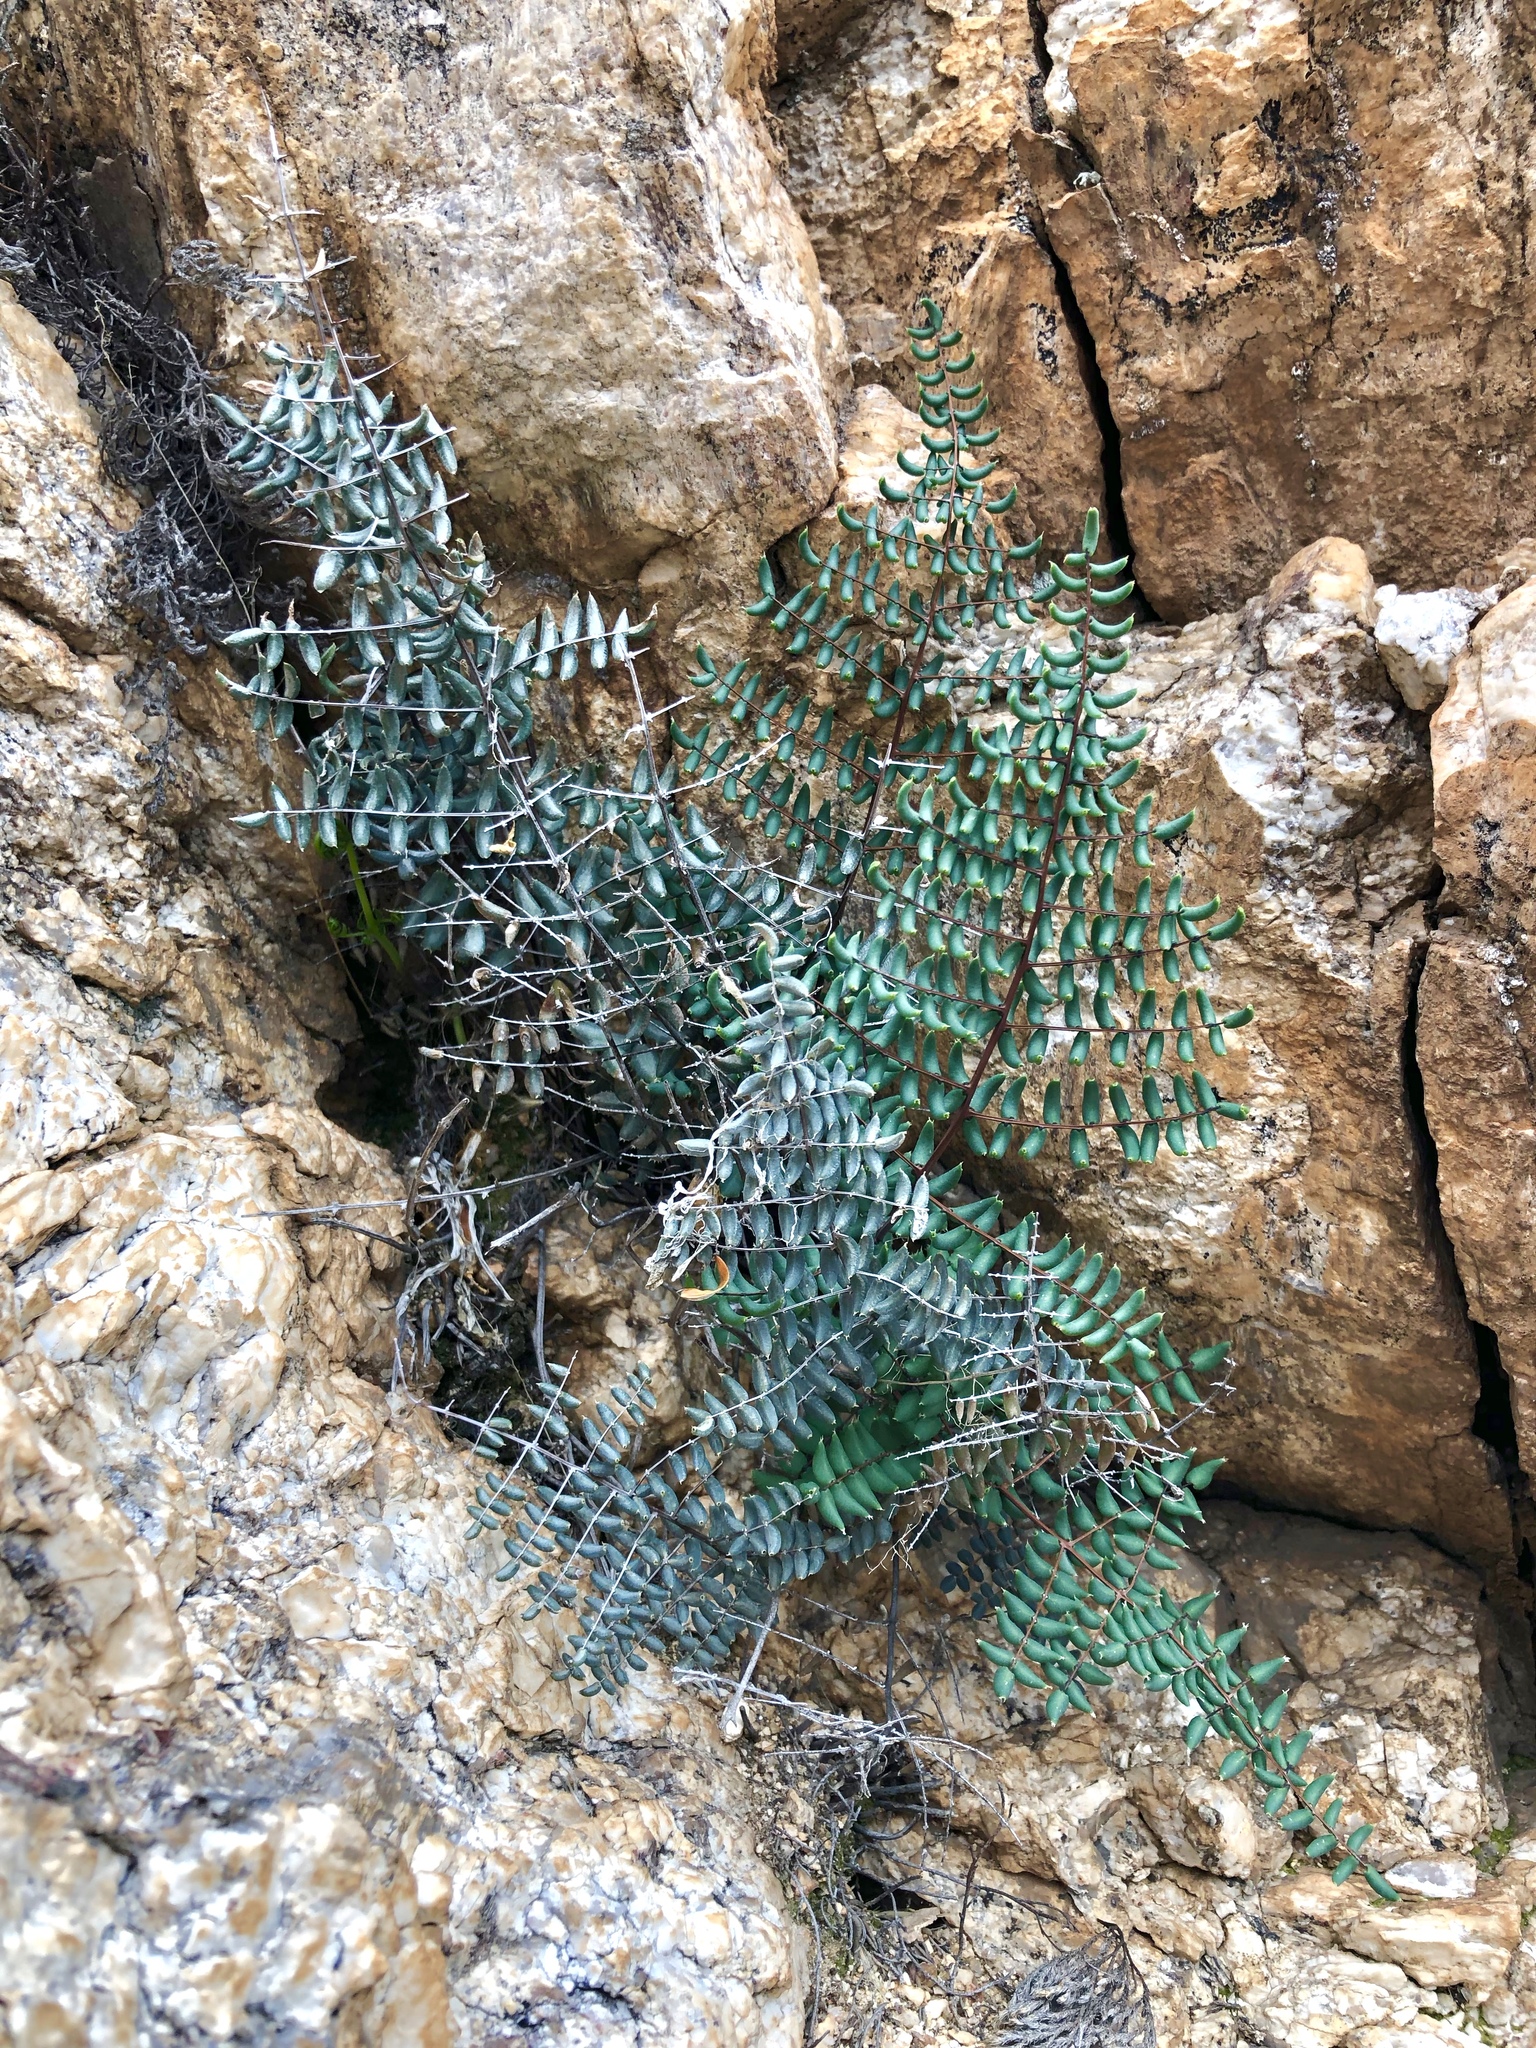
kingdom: Plantae
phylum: Tracheophyta
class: Polypodiopsida
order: Polypodiales
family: Pteridaceae
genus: Pellaea
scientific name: Pellaea truncata
